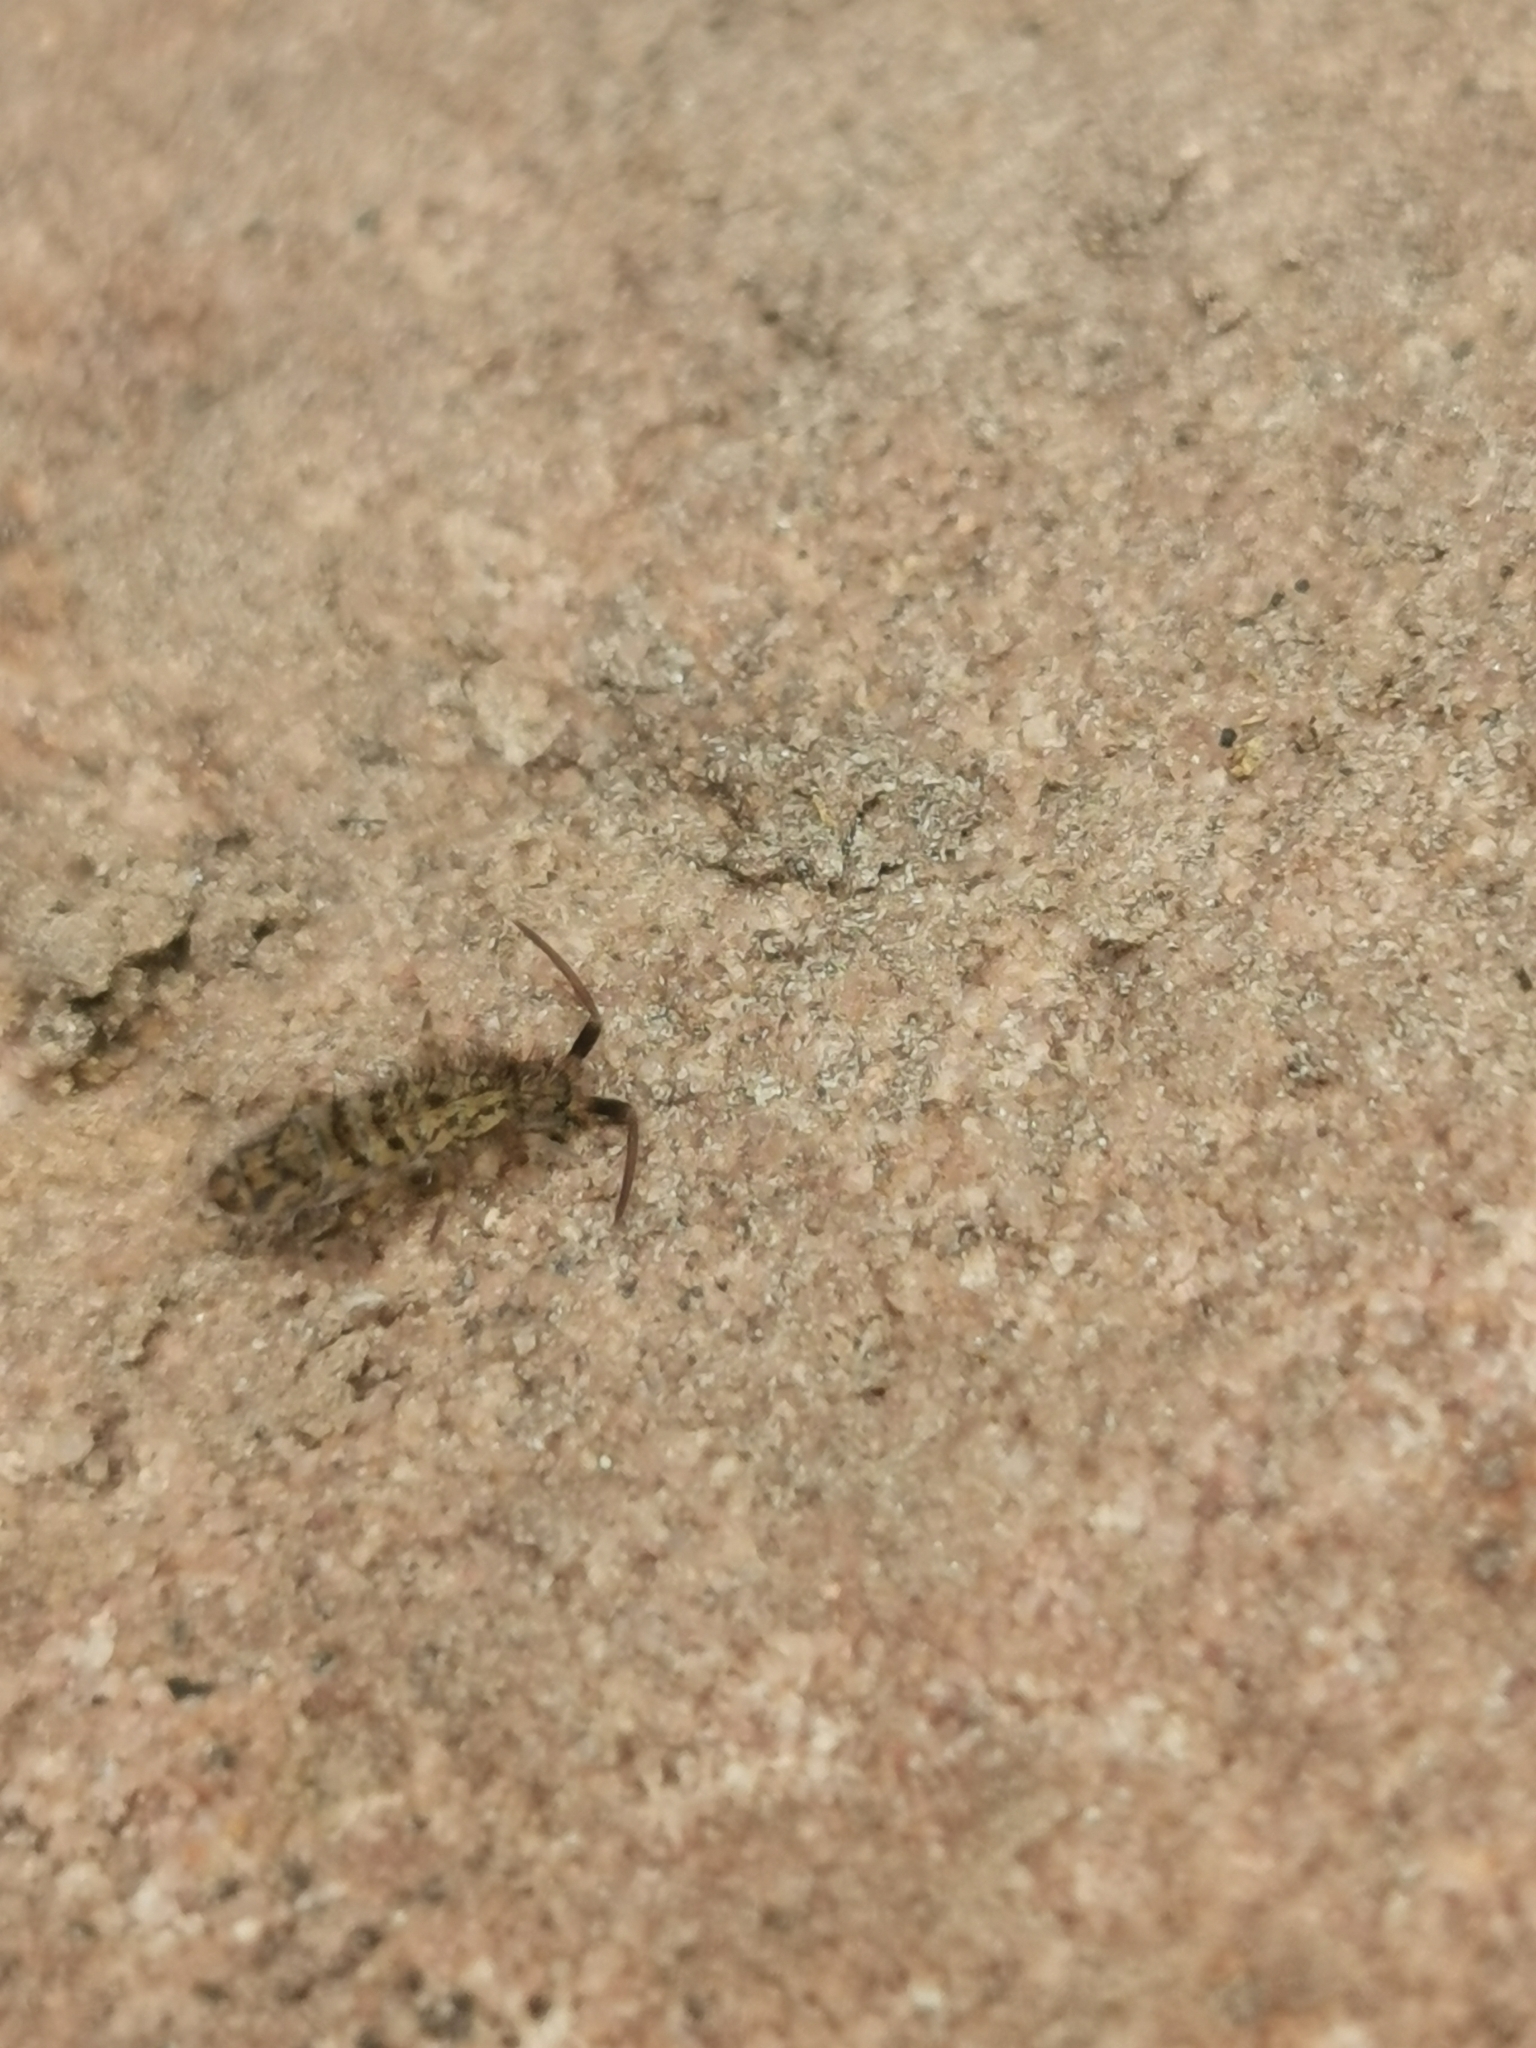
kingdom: Animalia
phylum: Arthropoda
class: Collembola
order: Entomobryomorpha
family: Orchesellidae
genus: Orchesella
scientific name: Orchesella villosa
